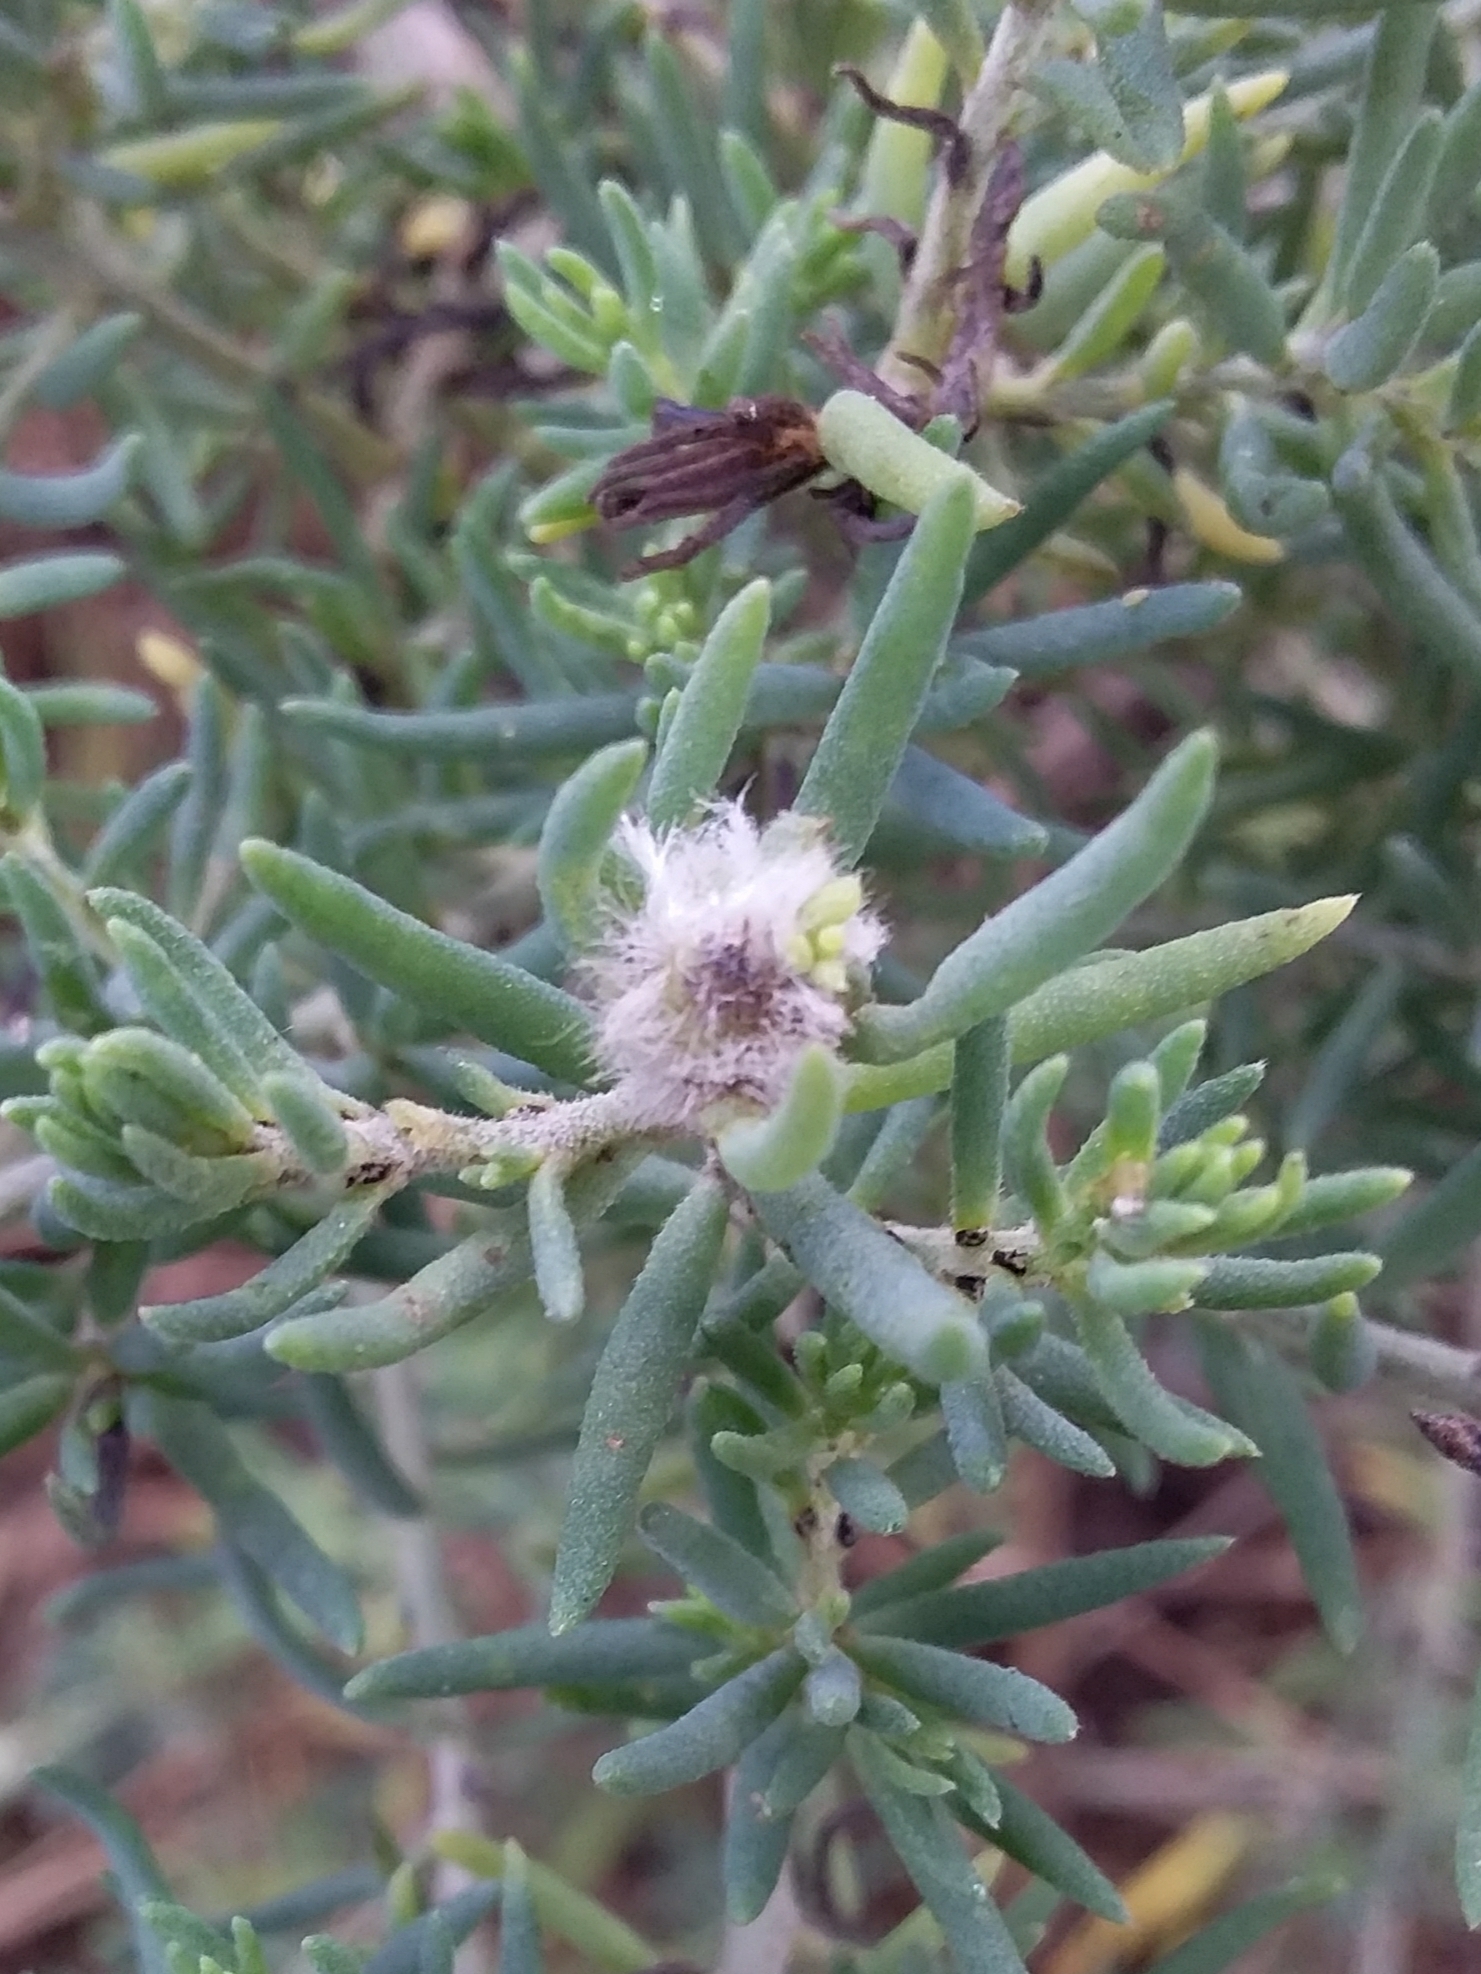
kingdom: Animalia
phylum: Arthropoda
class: Insecta
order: Diptera
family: Cecidomyiidae
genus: Asphondylia
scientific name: Asphondylia tonsura
